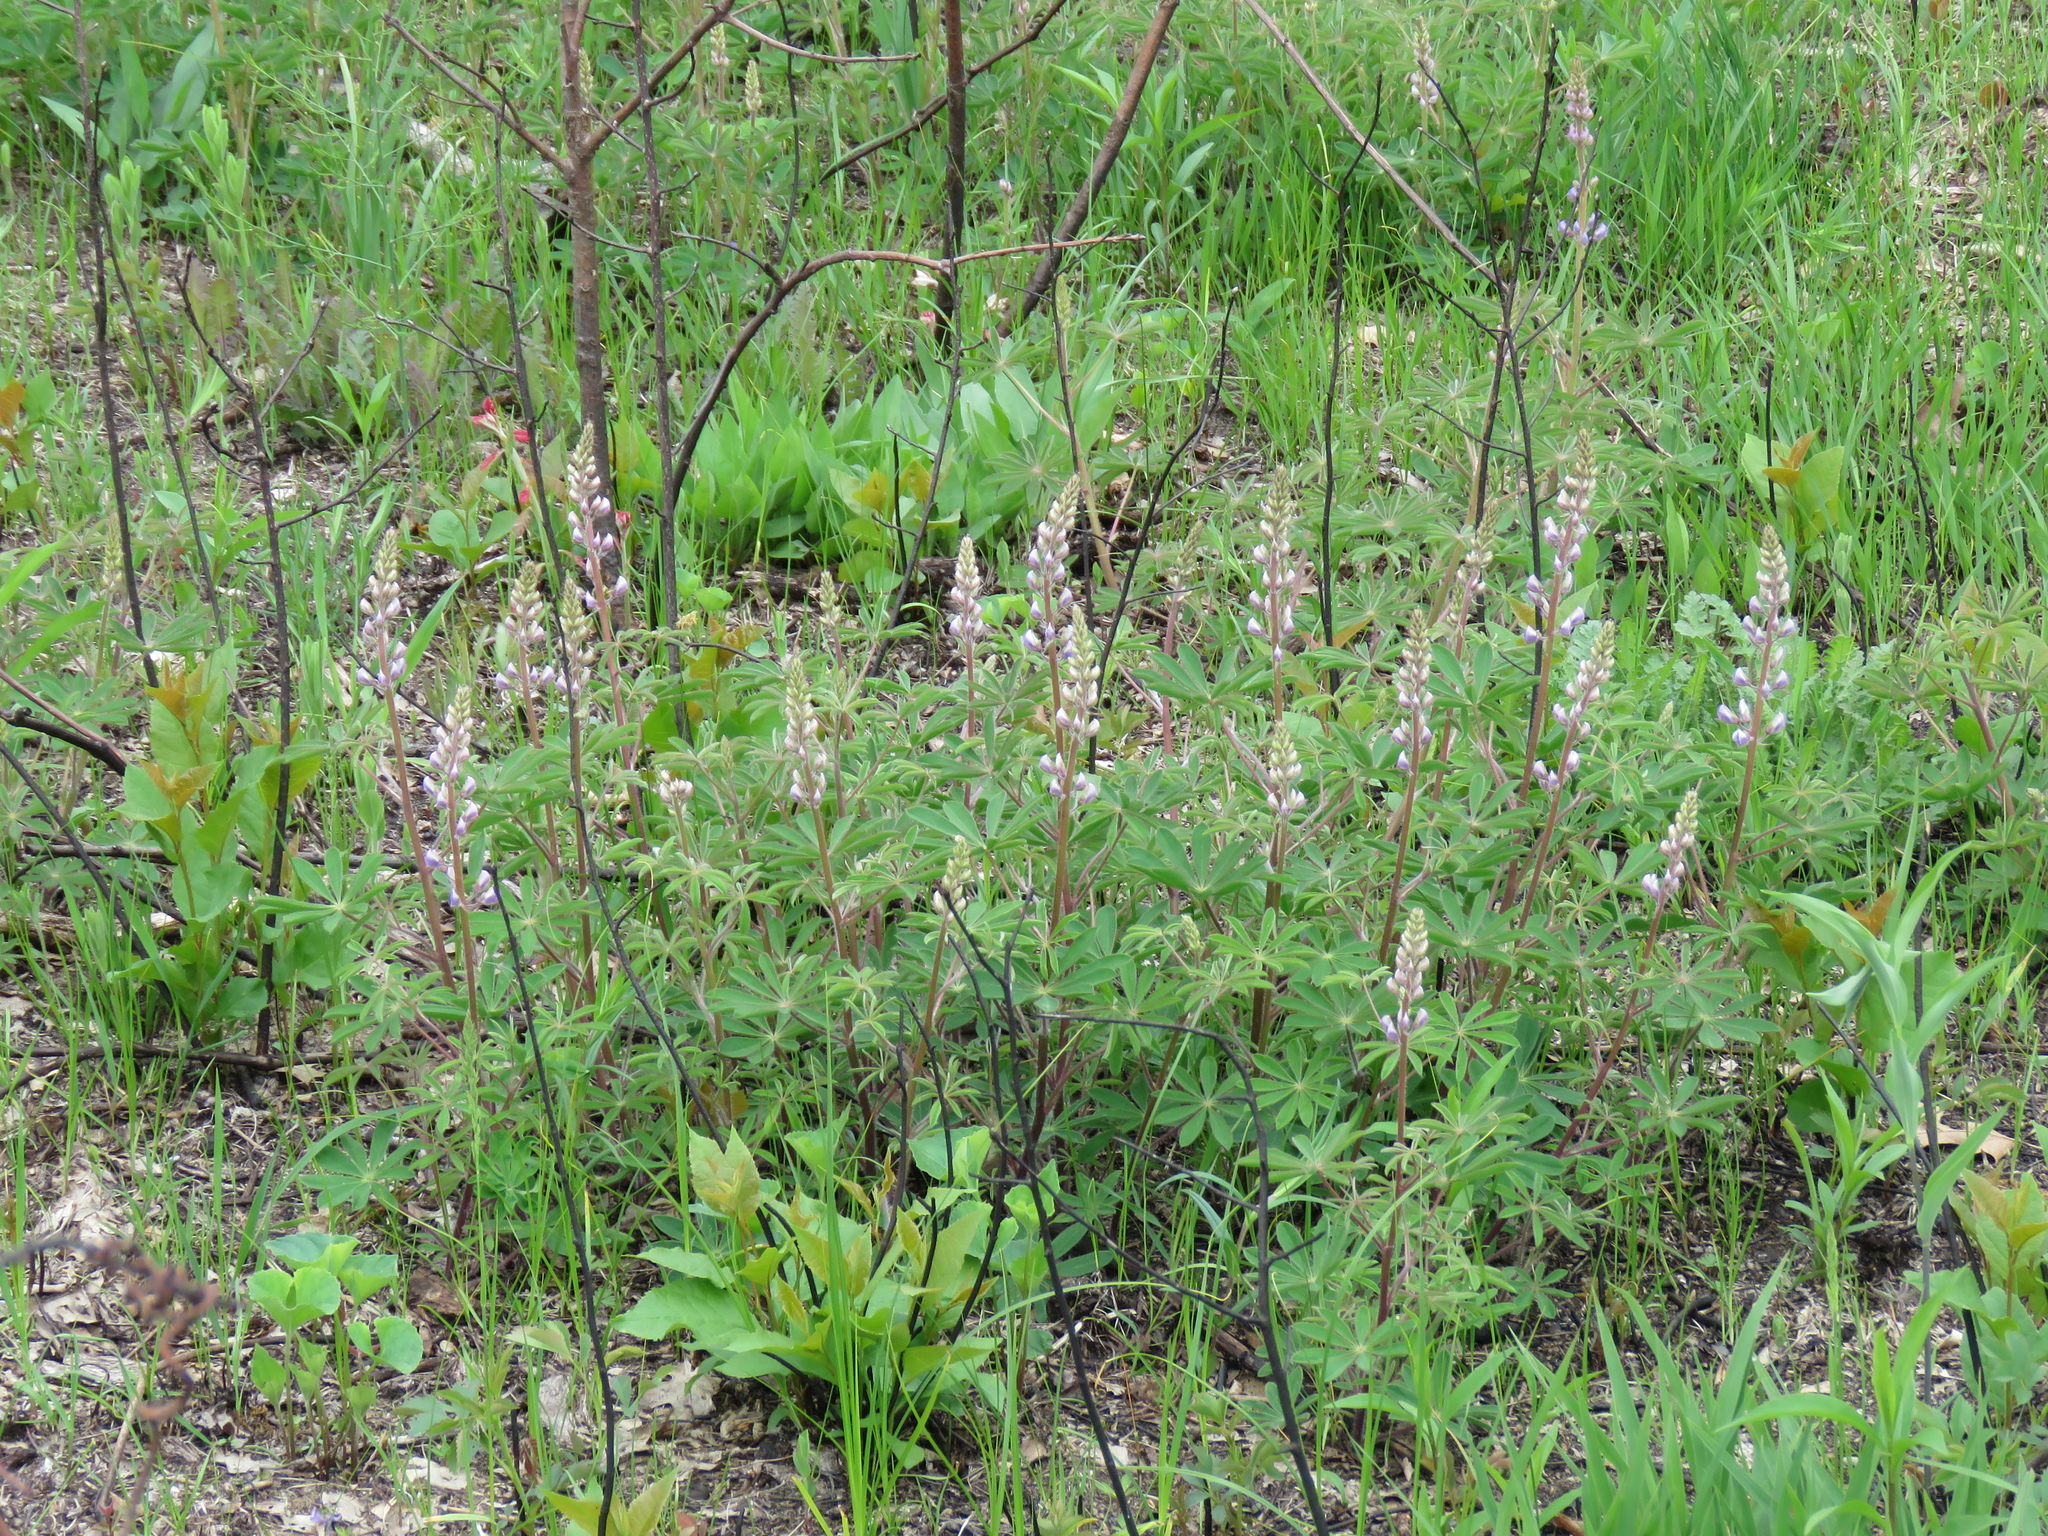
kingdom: Plantae
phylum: Tracheophyta
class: Magnoliopsida
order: Fabales
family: Fabaceae
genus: Lupinus
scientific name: Lupinus perennis
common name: Sundial lupine
